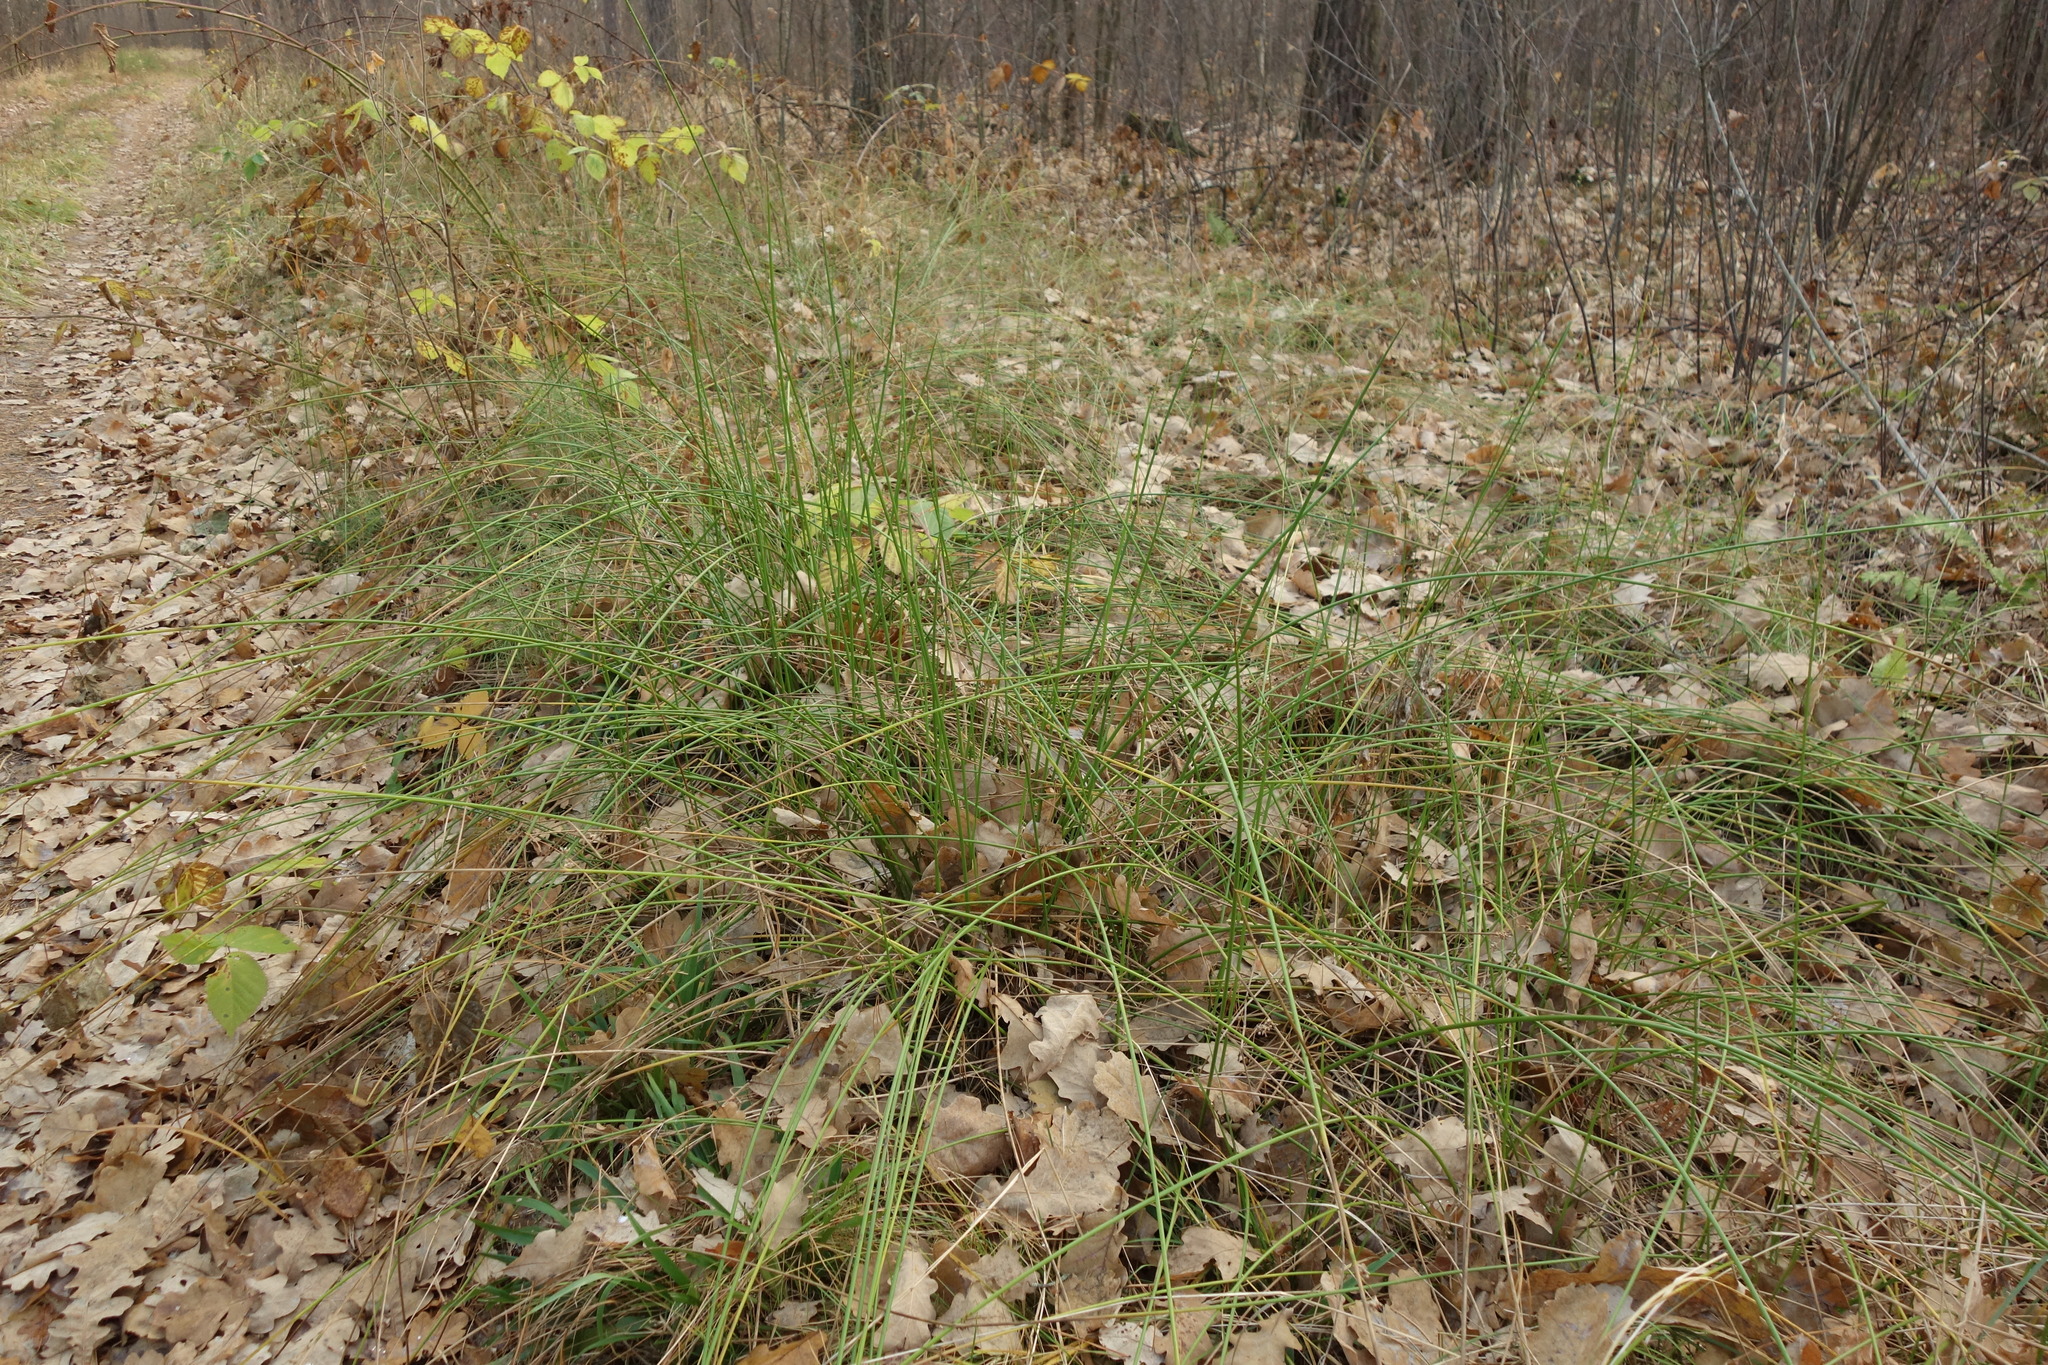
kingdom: Plantae
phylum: Tracheophyta
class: Liliopsida
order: Poales
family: Juncaceae
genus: Juncus
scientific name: Juncus effusus
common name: Soft rush
